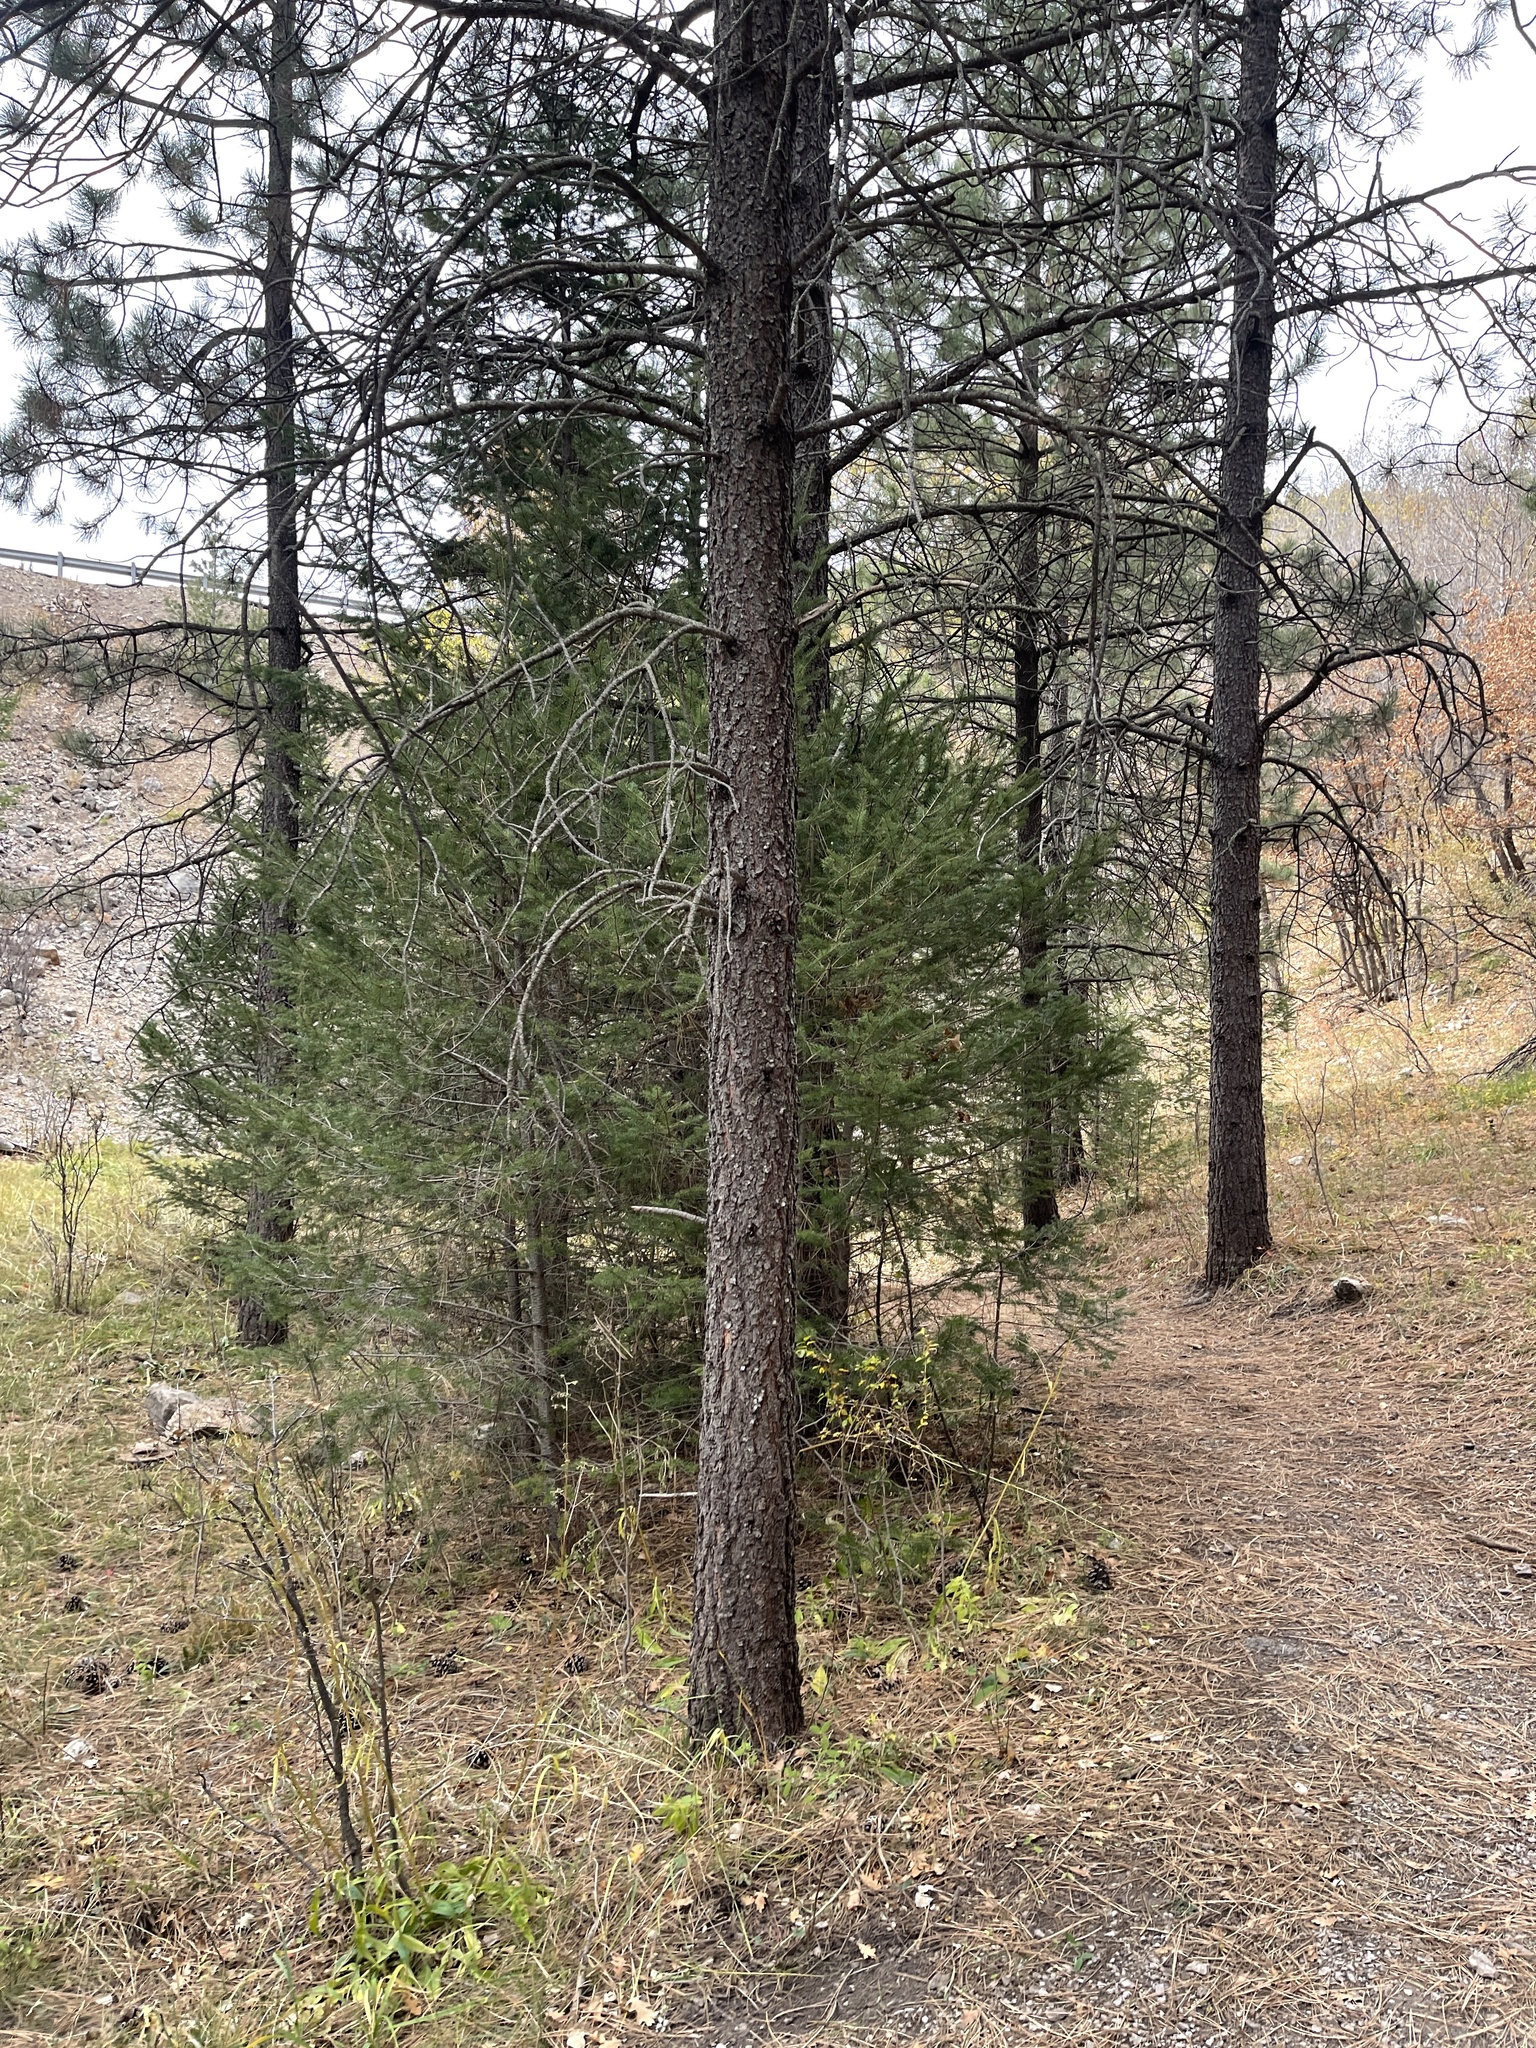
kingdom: Plantae
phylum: Tracheophyta
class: Pinopsida
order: Pinales
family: Pinaceae
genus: Pinus
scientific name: Pinus ponderosa
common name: Western yellow-pine
